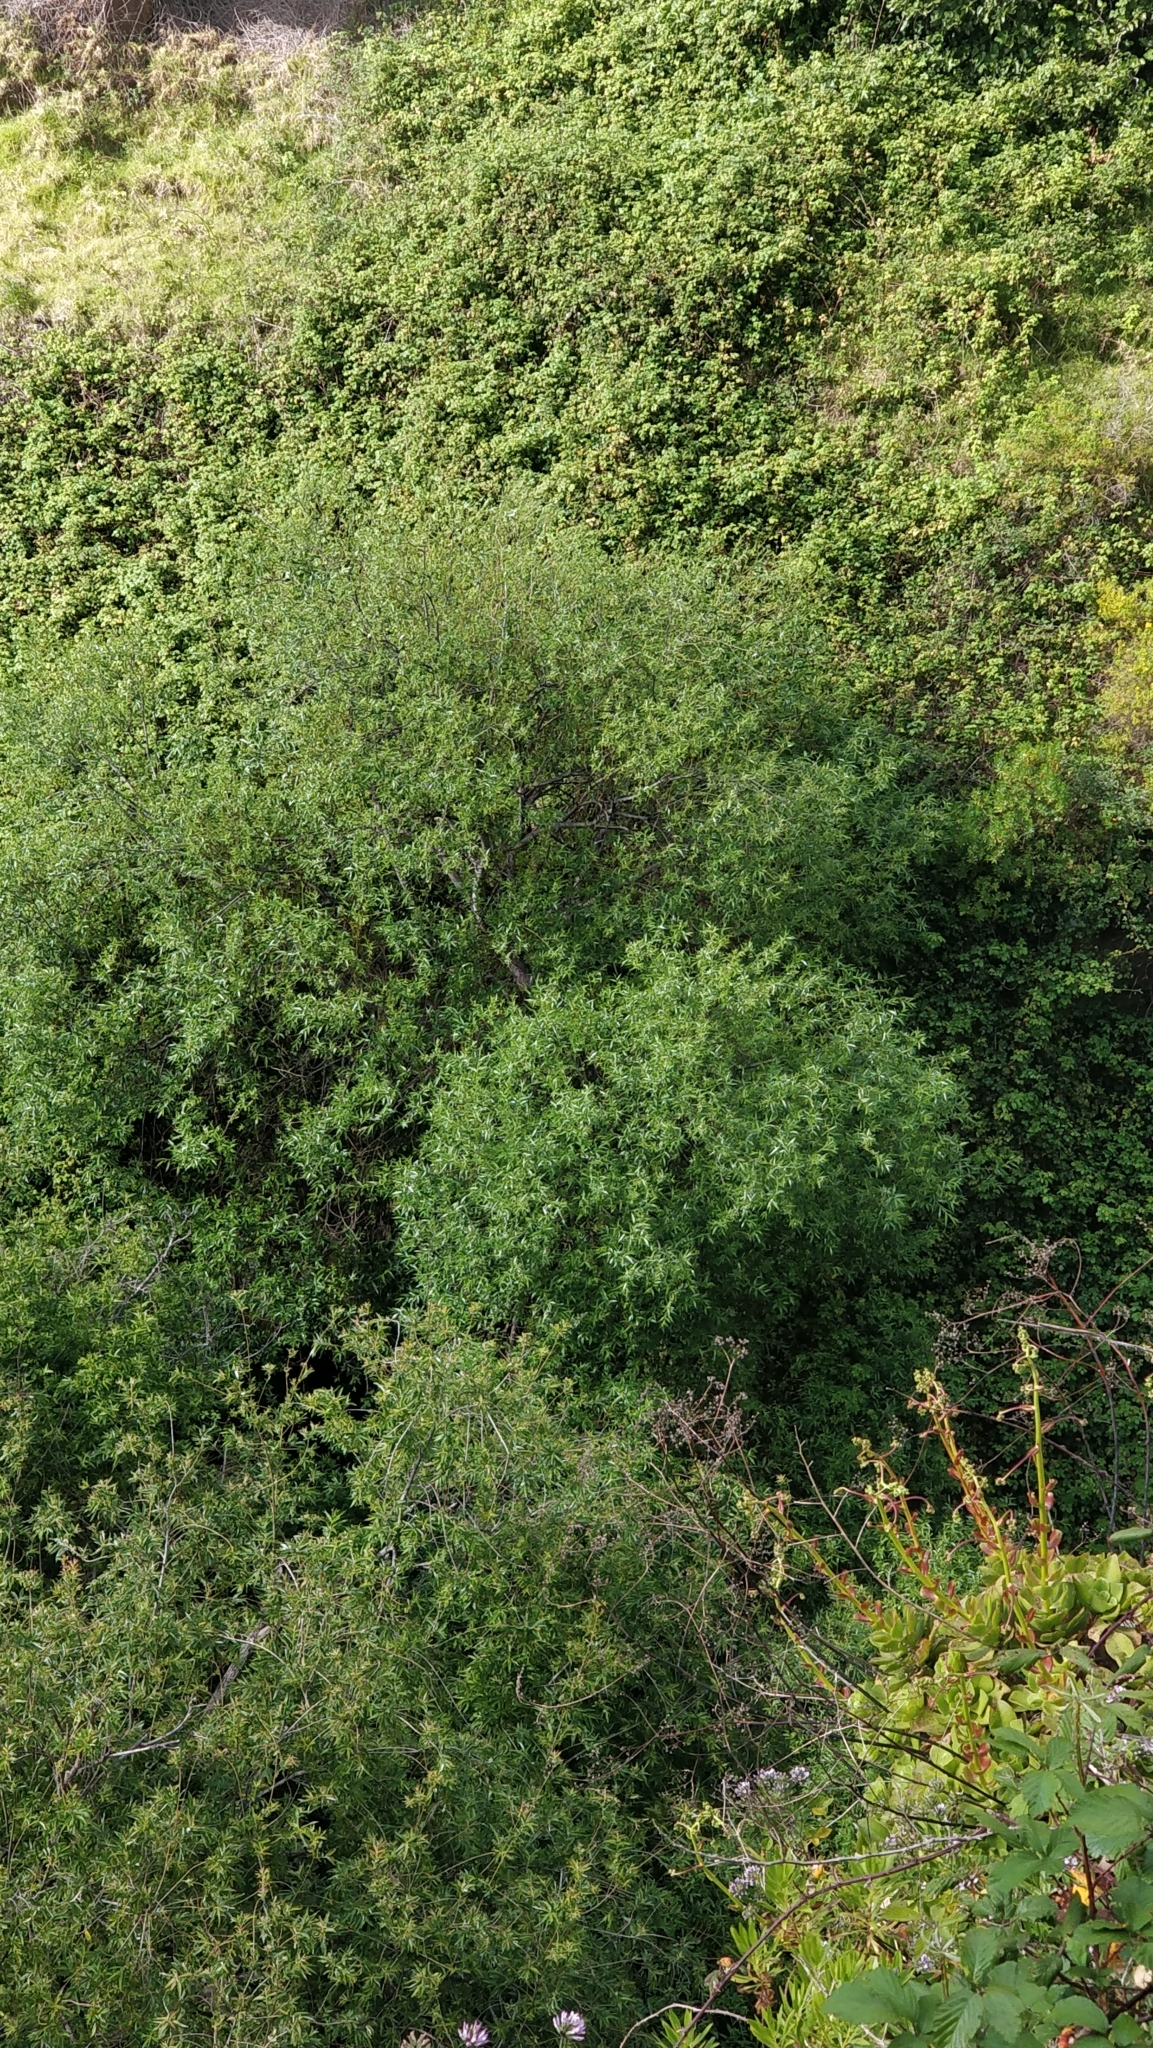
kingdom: Plantae
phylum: Tracheophyta
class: Magnoliopsida
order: Malpighiales
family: Salicaceae
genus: Salix
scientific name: Salix canariensis
